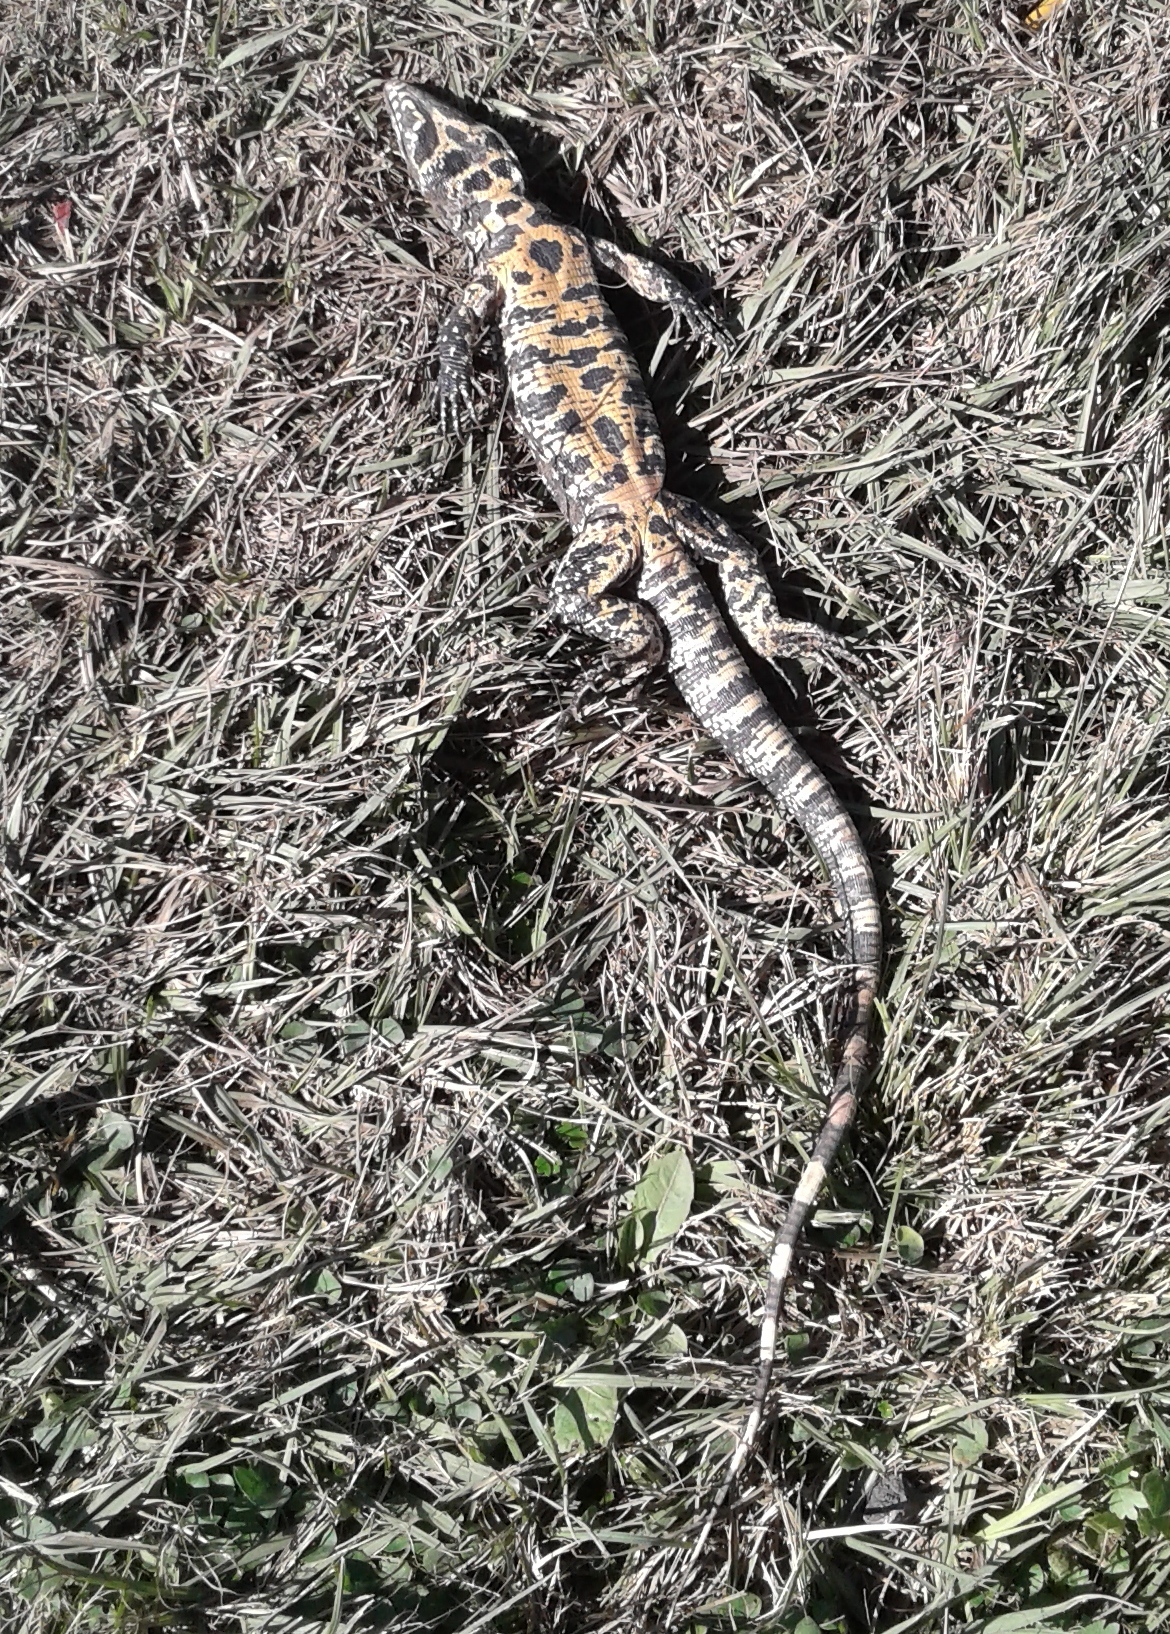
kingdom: Animalia
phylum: Chordata
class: Squamata
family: Teiidae
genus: Salvator
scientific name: Salvator merianae
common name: Argentine black and white tegu
